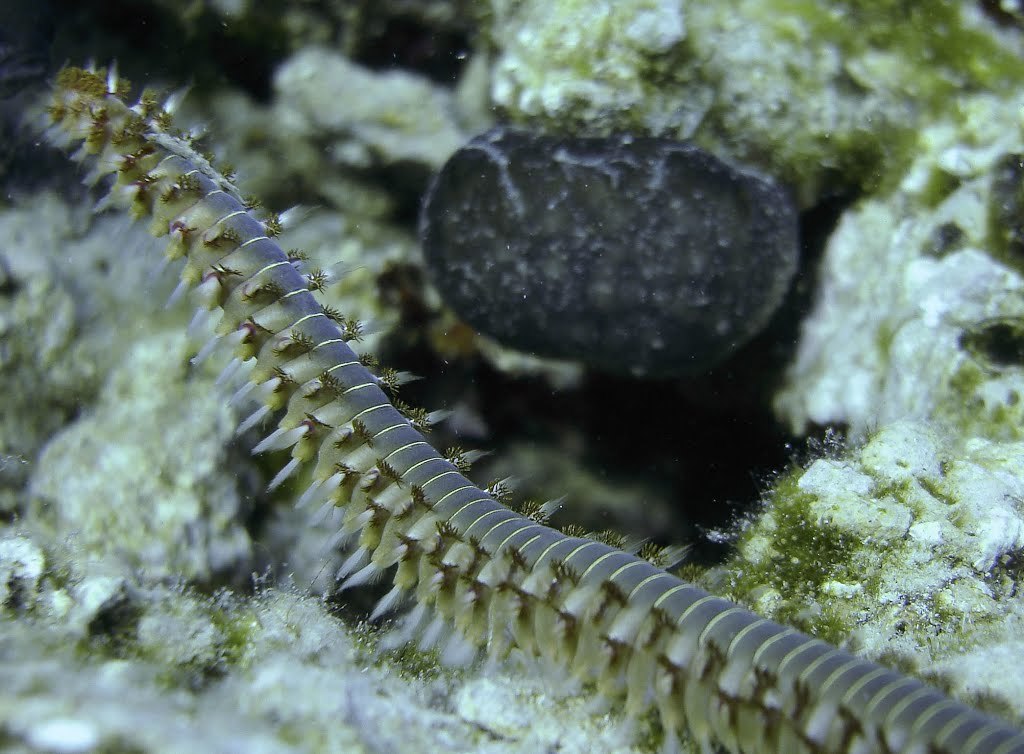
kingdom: Animalia
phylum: Annelida
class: Polychaeta
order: Amphinomida
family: Amphinomidae
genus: Hermodice
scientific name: Hermodice carunculata
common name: Bearded fireworm
